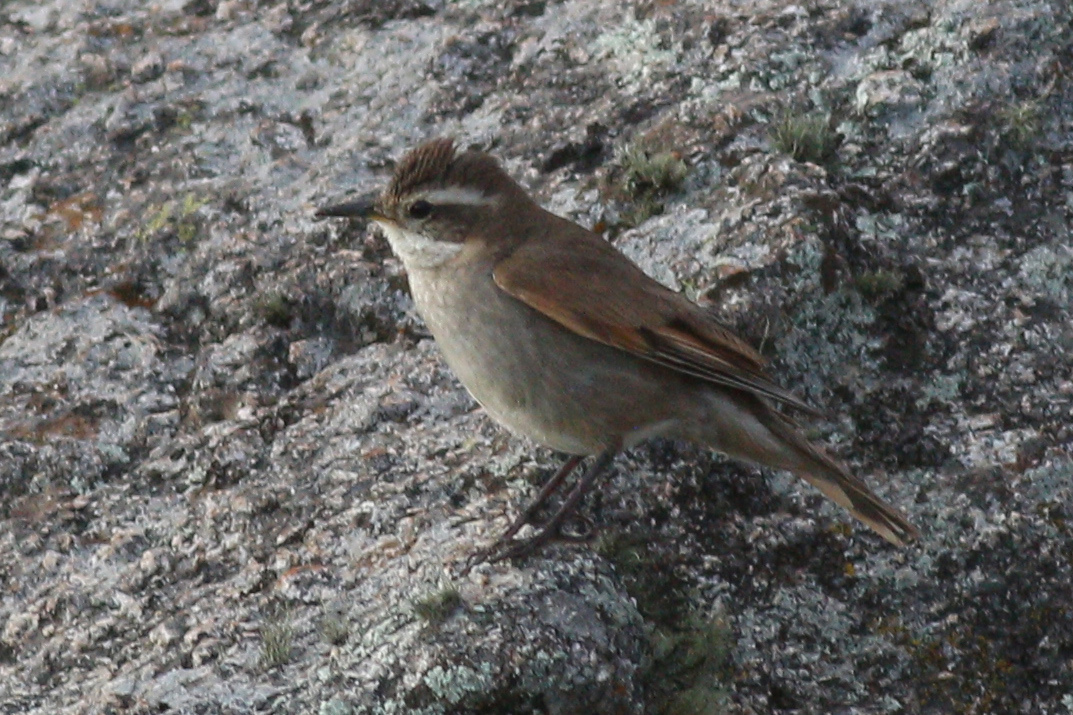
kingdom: Animalia
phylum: Chordata
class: Aves
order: Passeriformes
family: Furnariidae
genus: Cinclodes
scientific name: Cinclodes comechingonus
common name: Cordoba cinclodes
